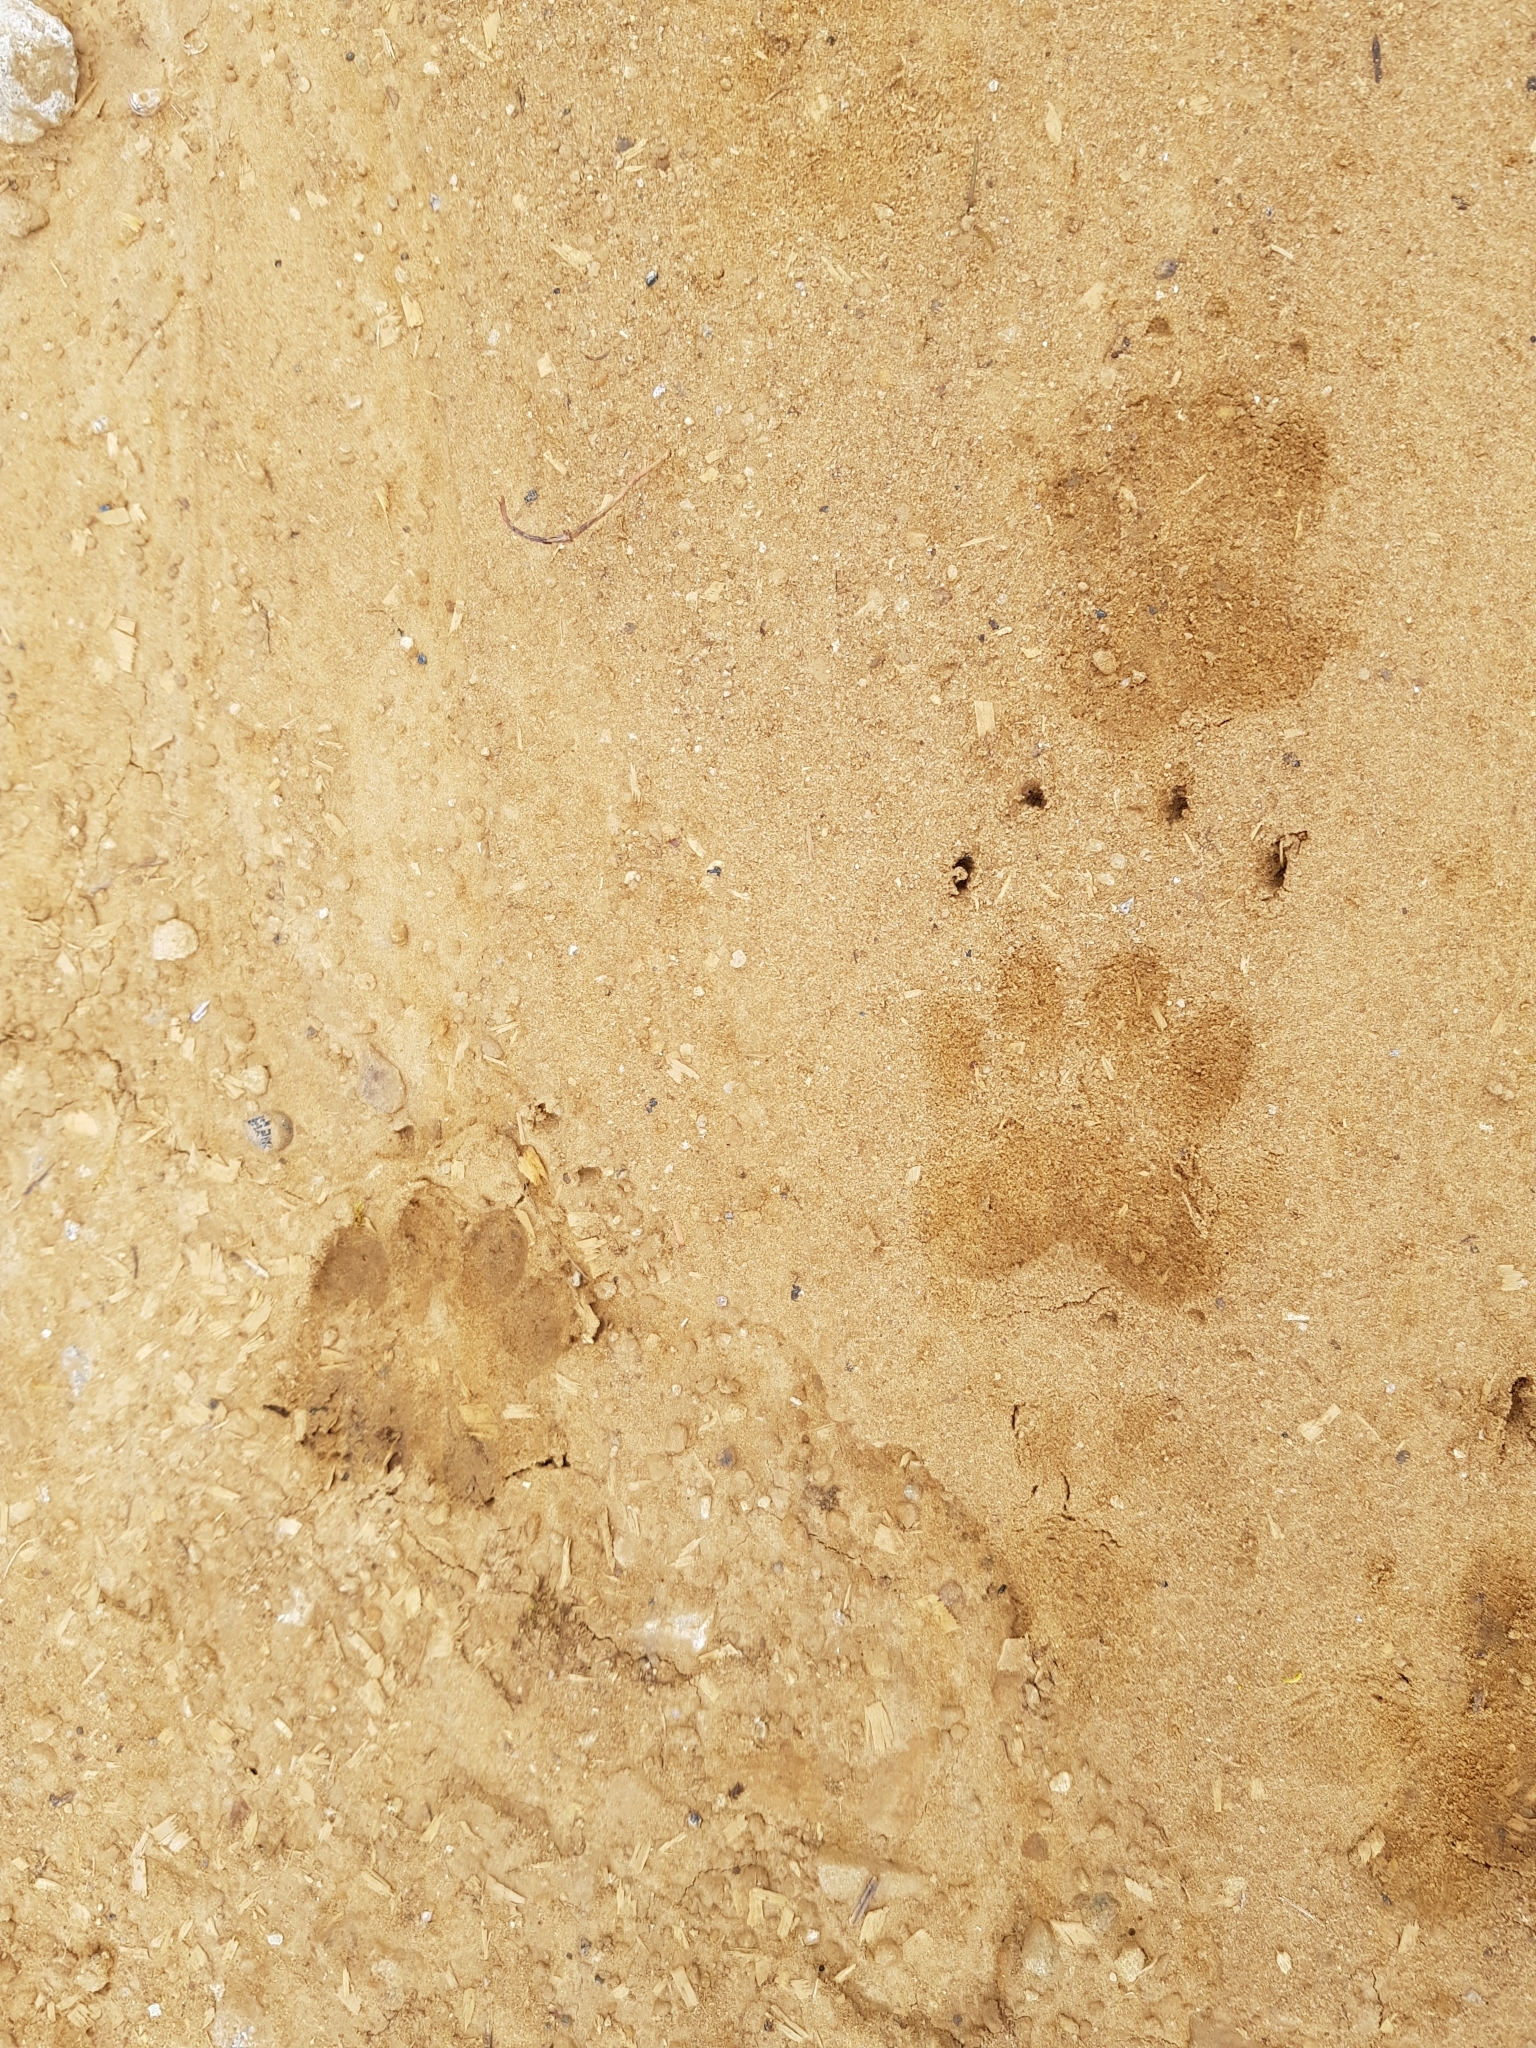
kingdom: Animalia
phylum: Chordata
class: Mammalia
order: Carnivora
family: Mustelidae
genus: Meles
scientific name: Meles meles
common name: Eurasian badger
